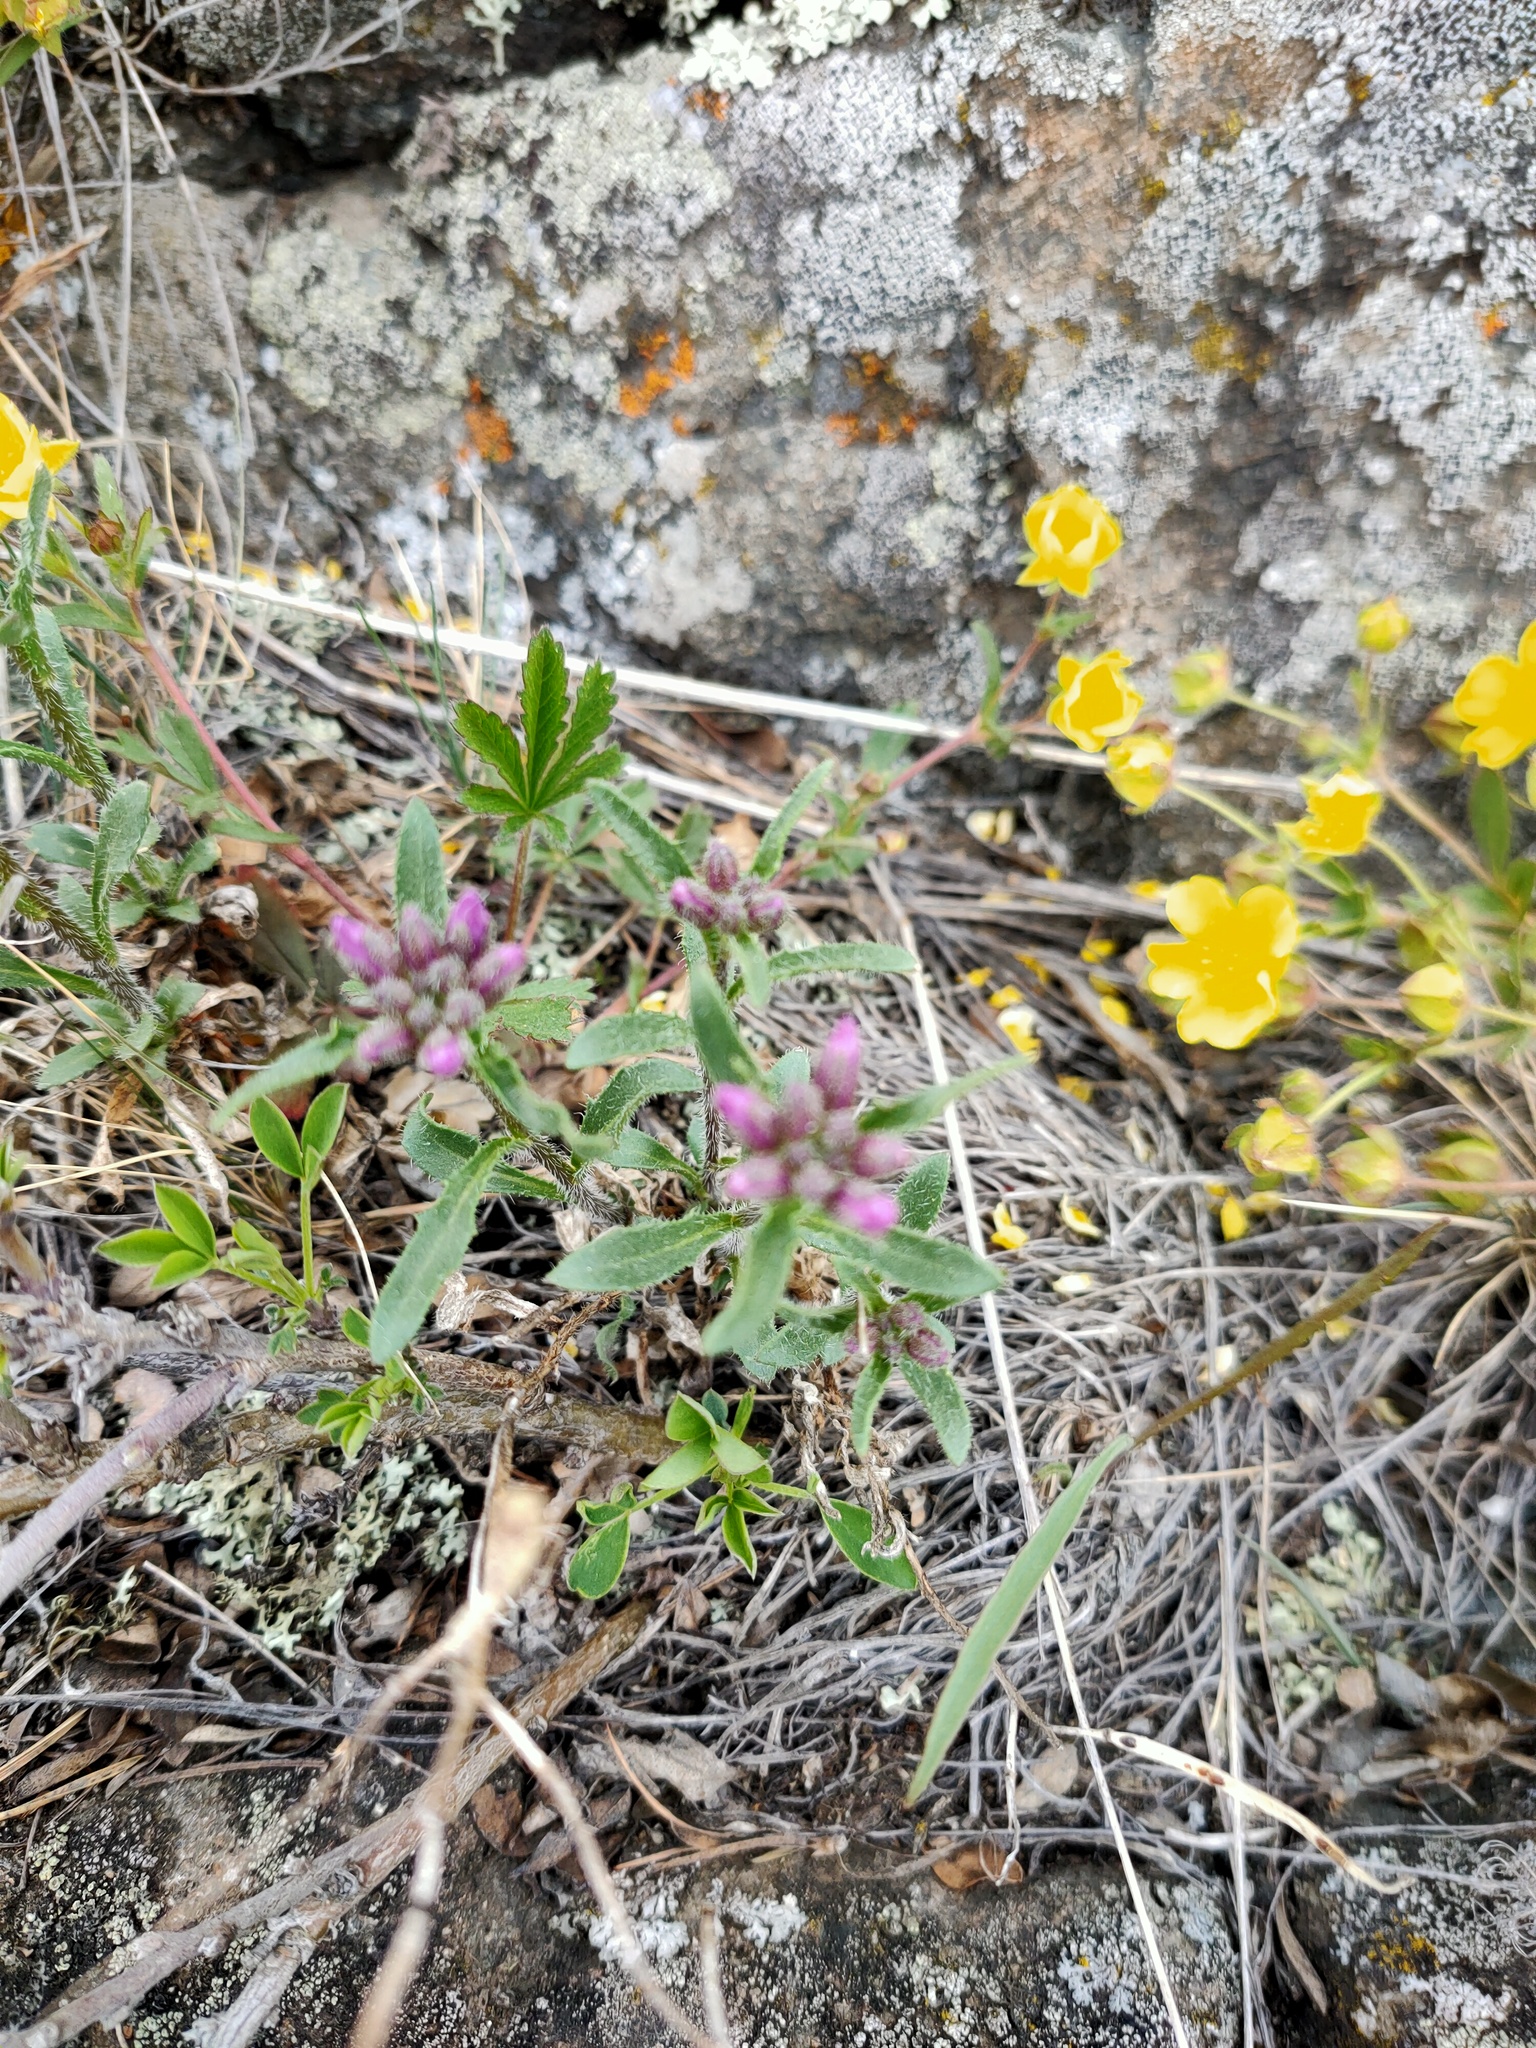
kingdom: Plantae
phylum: Tracheophyta
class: Magnoliopsida
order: Brassicales
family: Brassicaceae
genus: Clausia
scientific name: Clausia aprica
